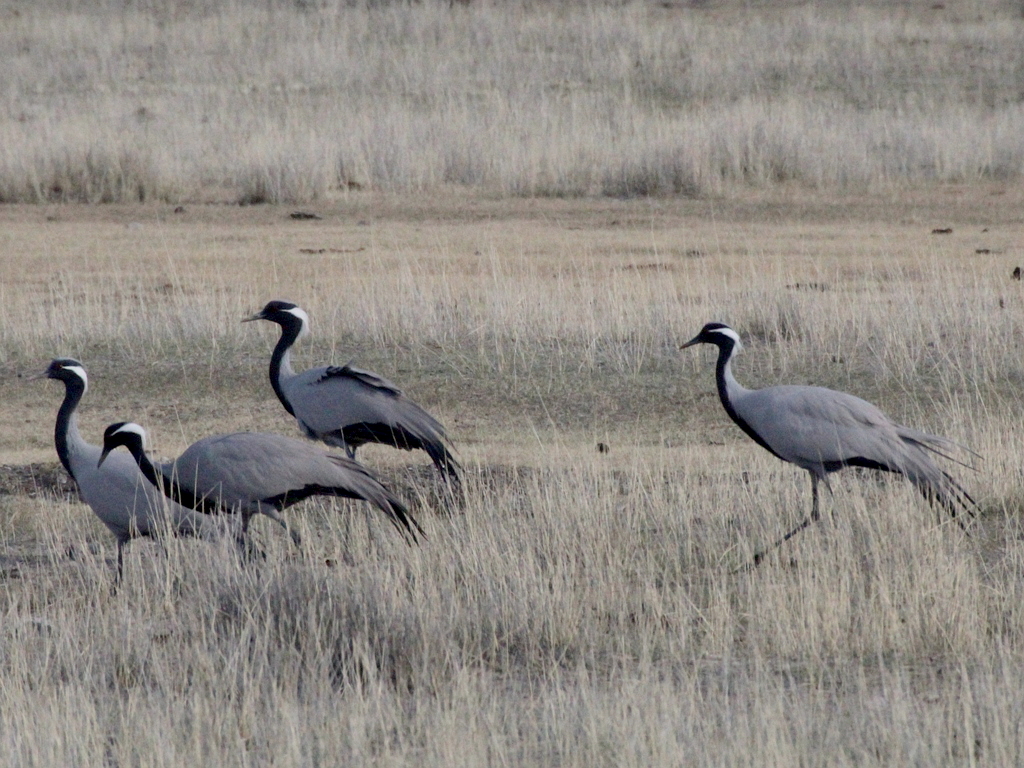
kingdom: Animalia
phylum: Chordata
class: Aves
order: Gruiformes
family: Gruidae
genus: Anthropoides
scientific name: Anthropoides virgo
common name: Demoiselle crane
